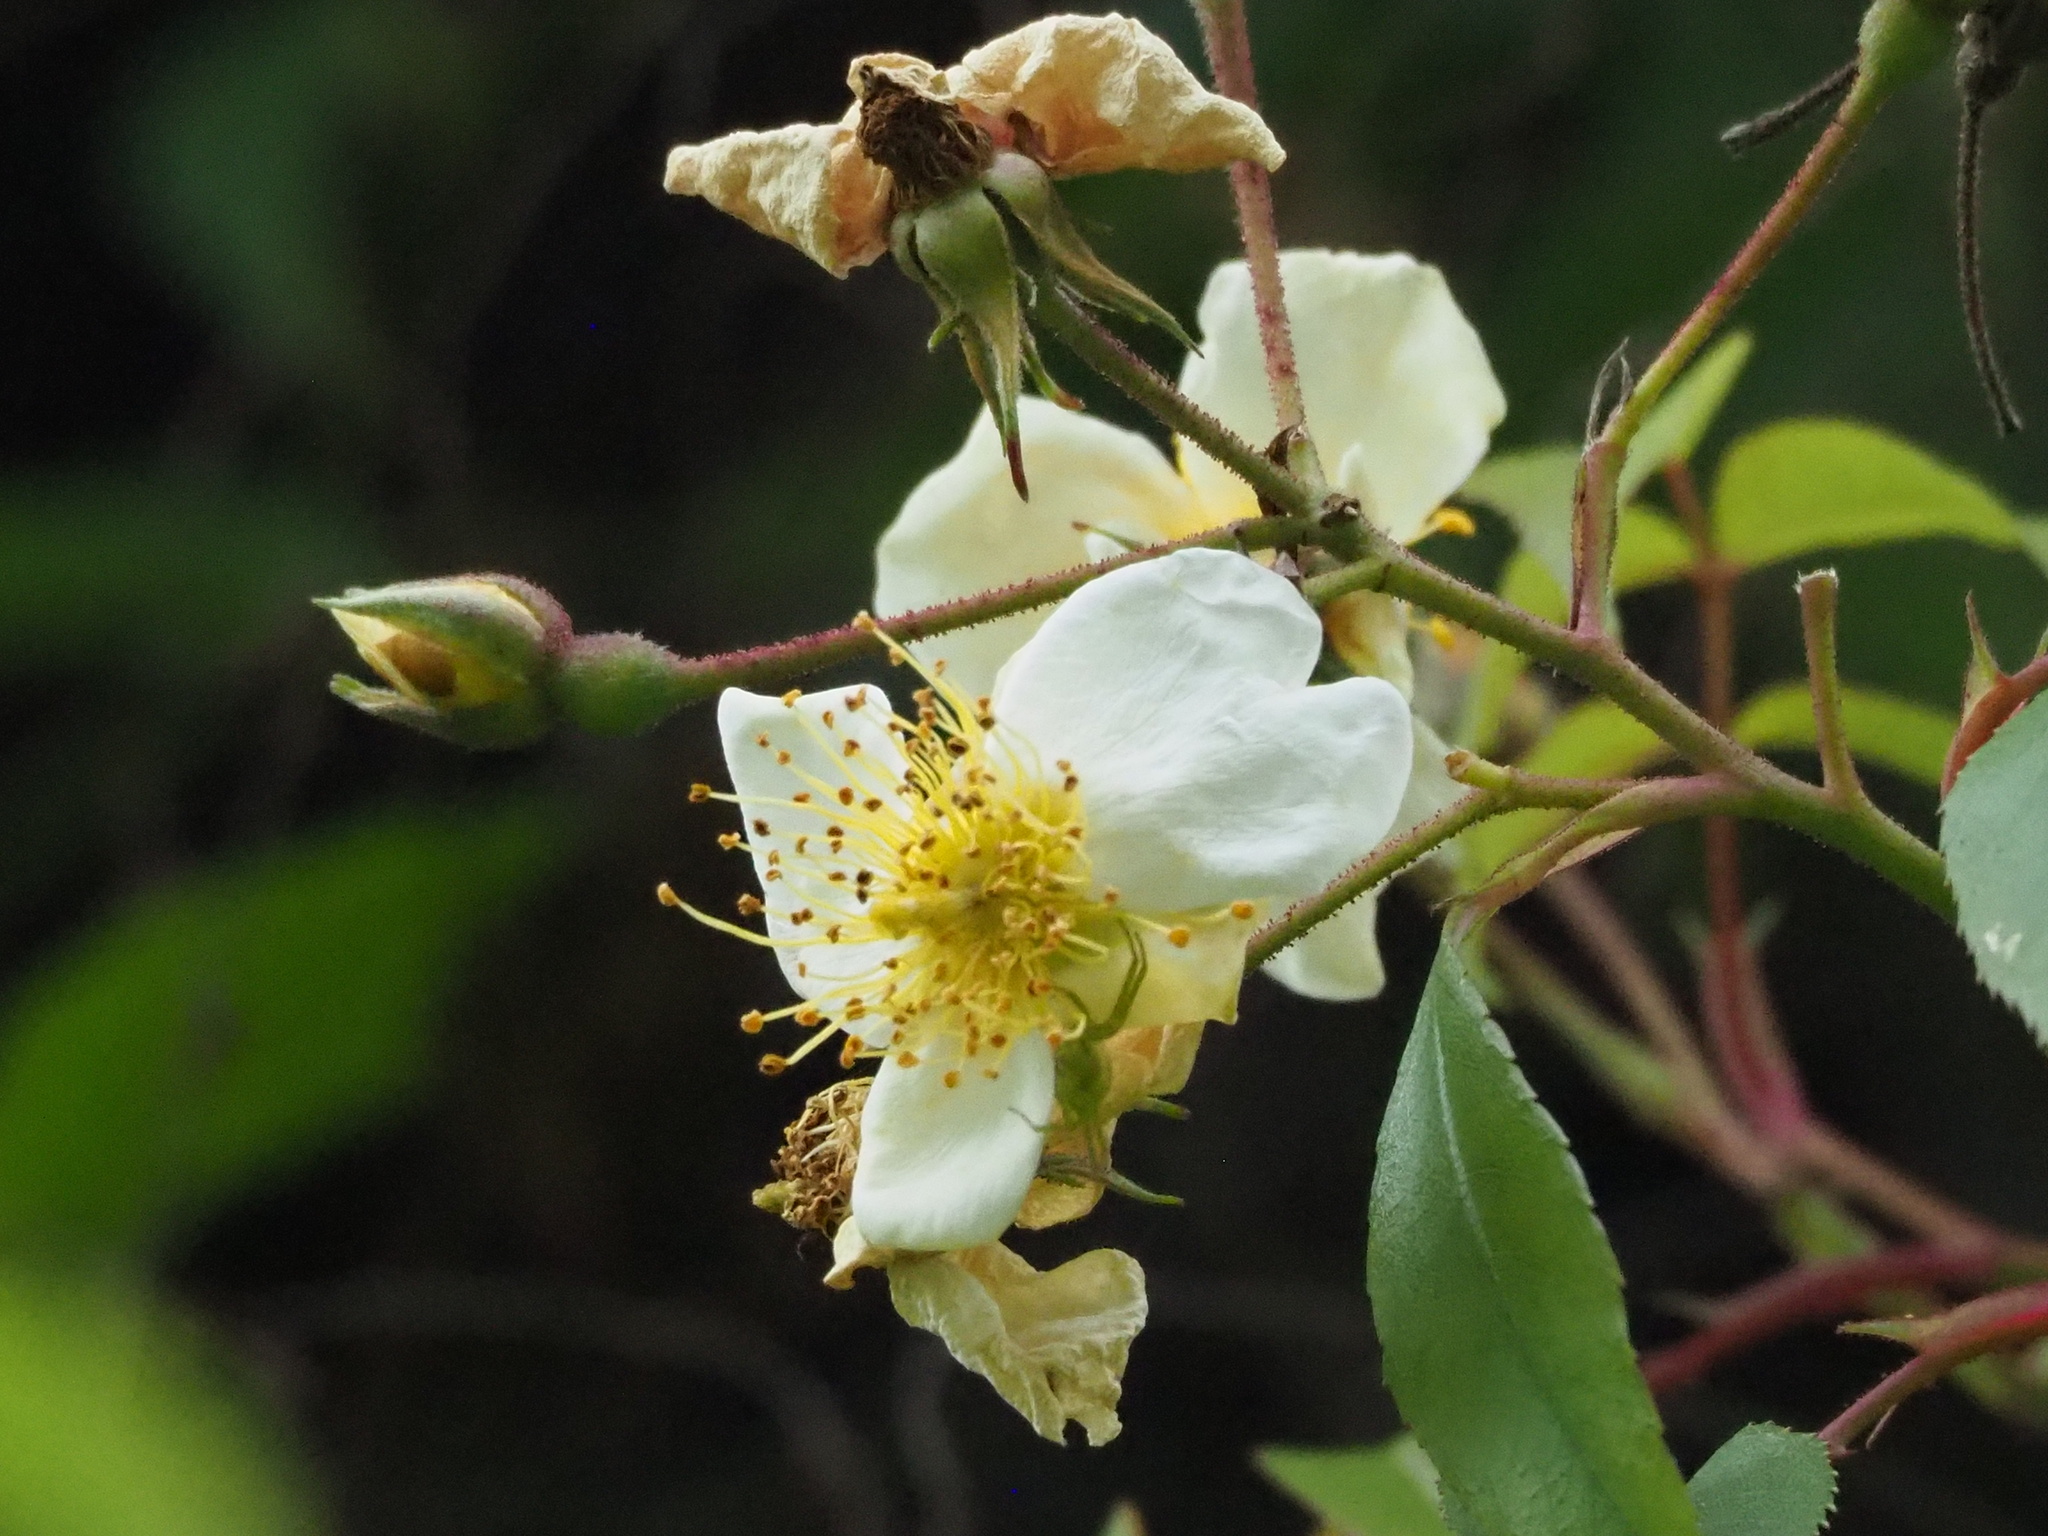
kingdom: Plantae
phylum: Tracheophyta
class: Magnoliopsida
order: Rosales
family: Rosaceae
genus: Rosa
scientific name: Rosa transmorrisonensis
